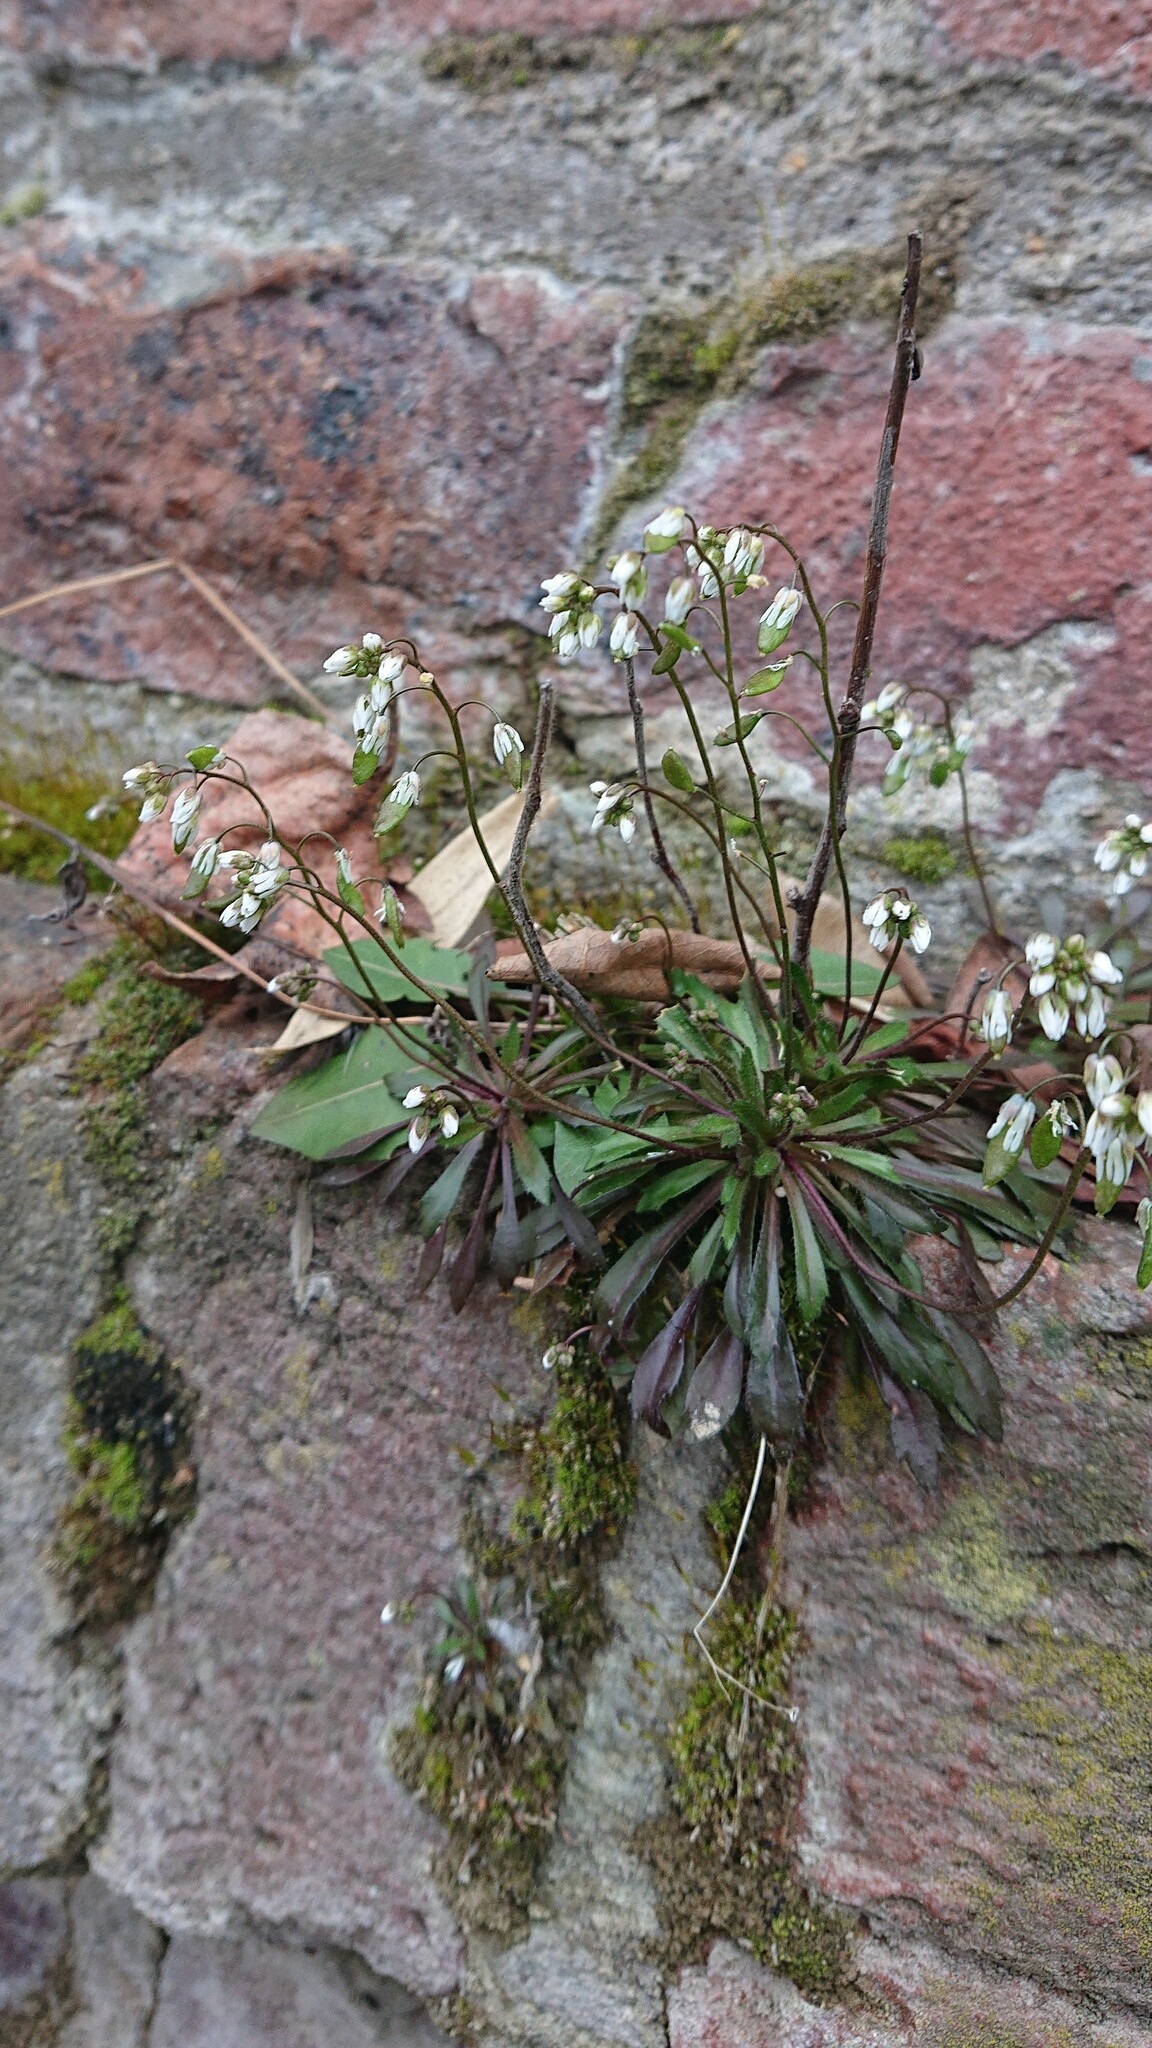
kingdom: Plantae
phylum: Tracheophyta
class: Magnoliopsida
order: Brassicales
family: Brassicaceae
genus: Draba
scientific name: Draba verna
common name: Spring draba
